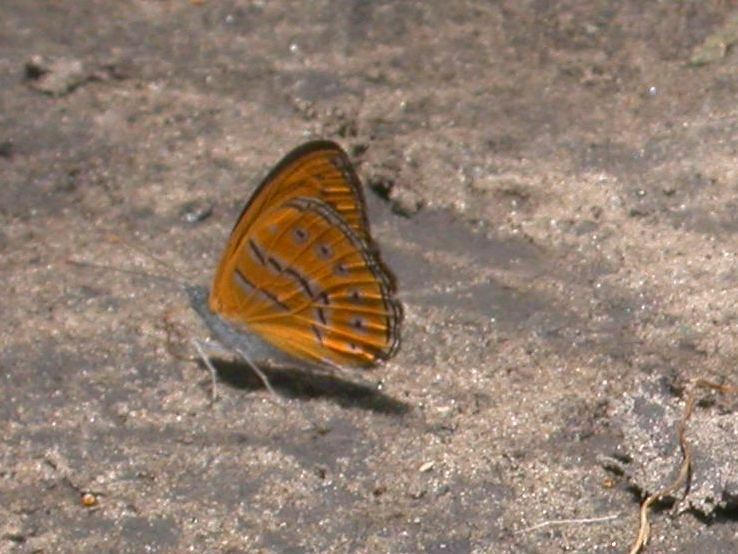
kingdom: Animalia
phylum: Arthropoda
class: Insecta
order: Lepidoptera
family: Nymphalidae
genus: Sevenia
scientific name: Sevenia
